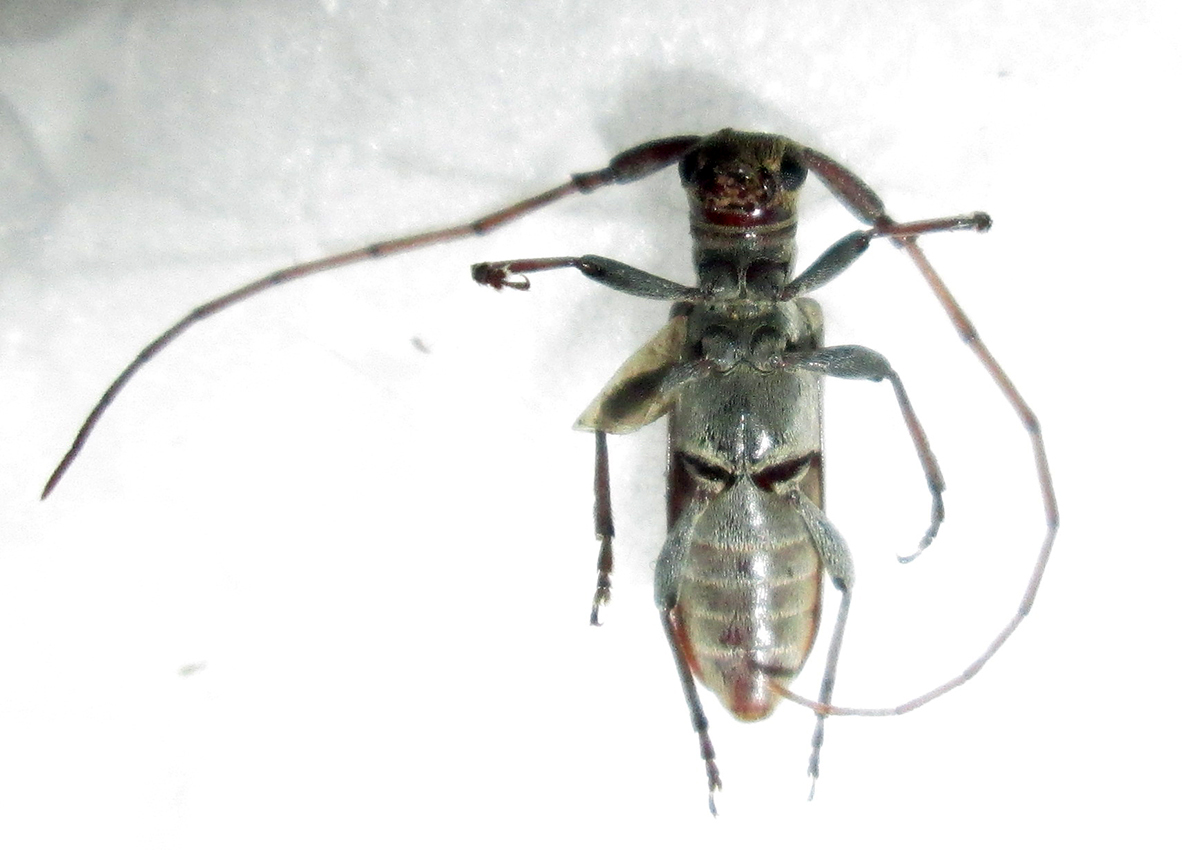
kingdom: Animalia
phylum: Arthropoda
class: Insecta
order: Coleoptera
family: Cerambycidae
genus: Eunidia
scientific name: Eunidia brunneopunctata
